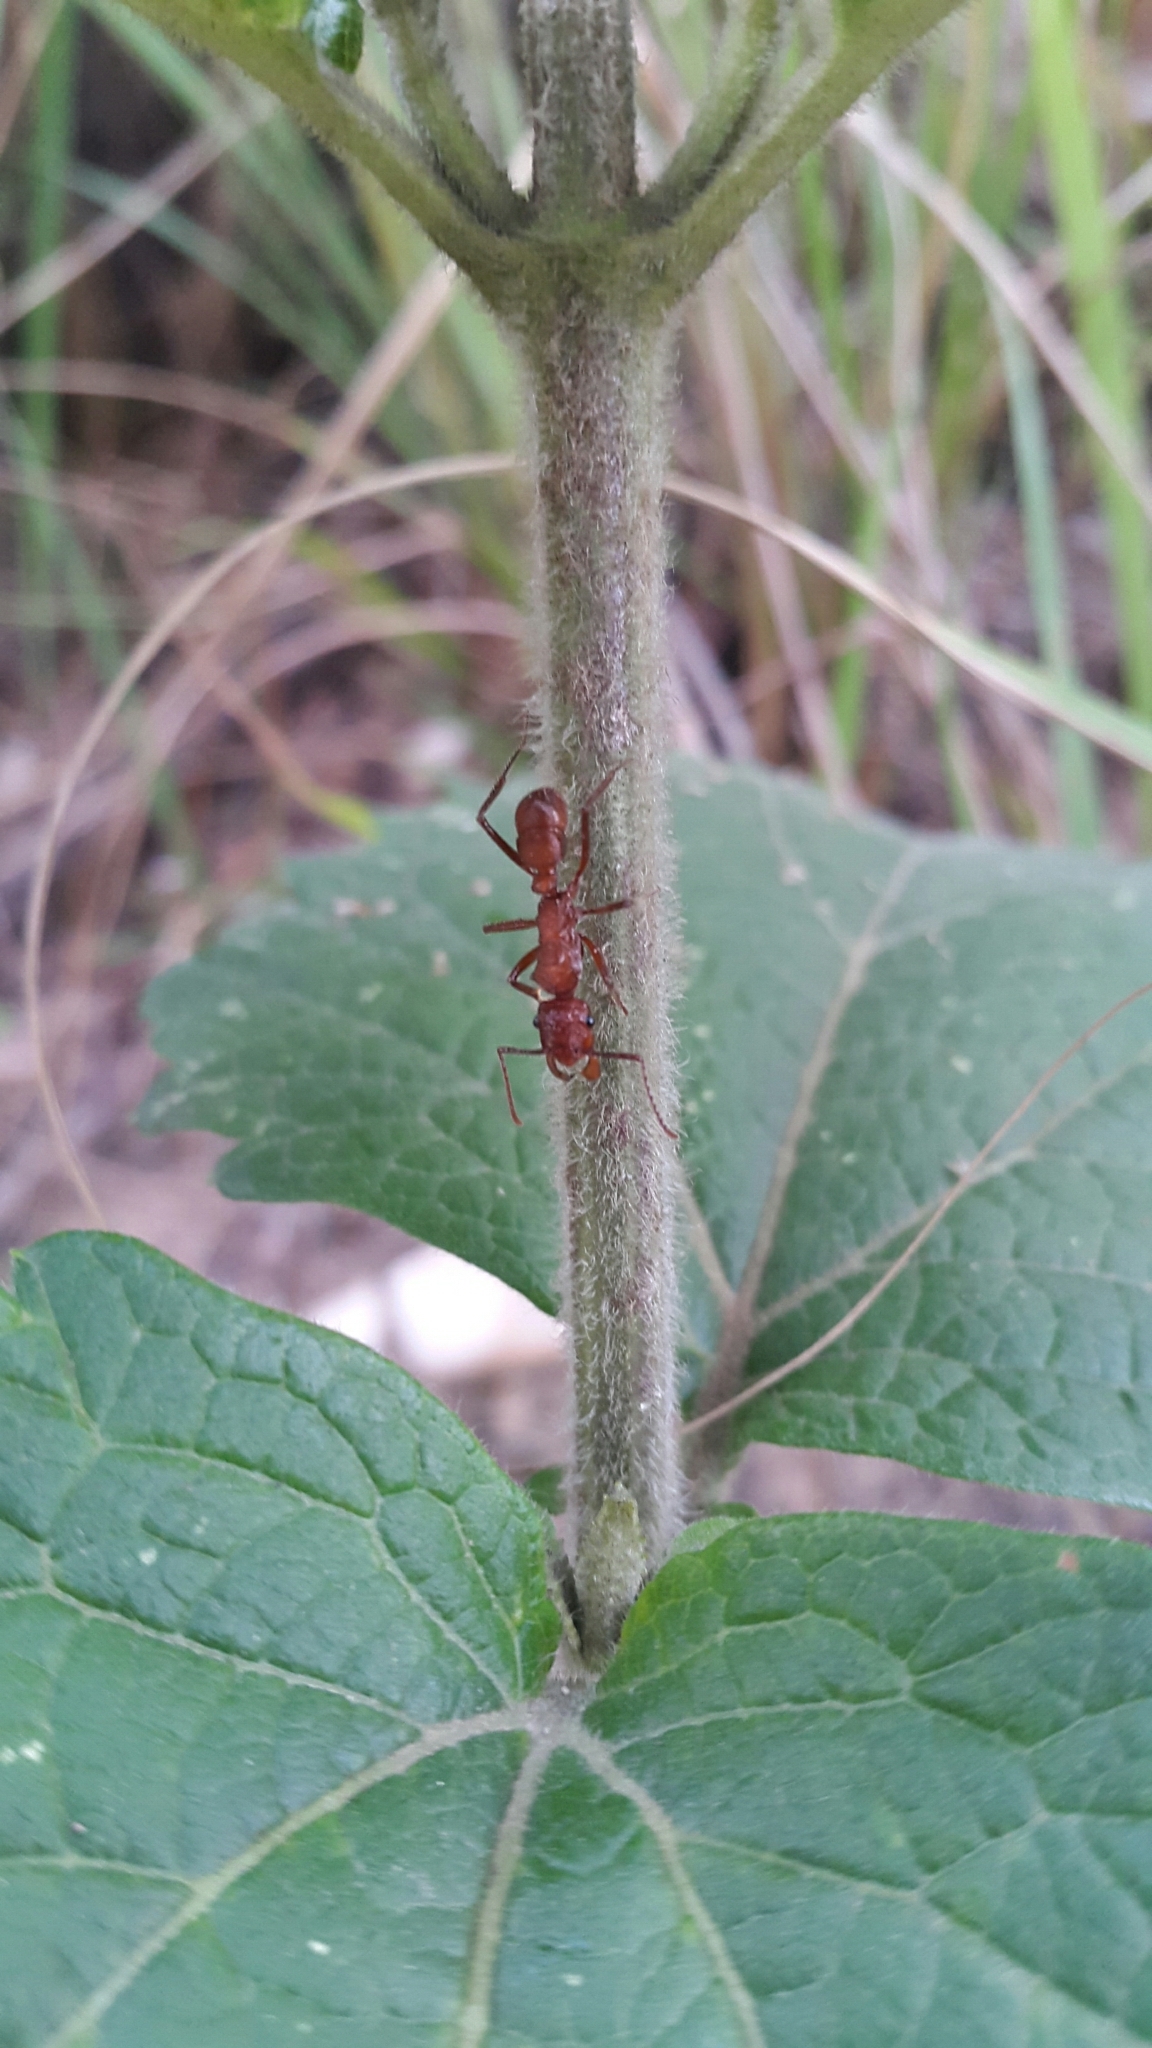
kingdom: Animalia
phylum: Arthropoda
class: Insecta
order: Hymenoptera
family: Formicidae
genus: Ectatomma
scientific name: Ectatomma tuberculatum
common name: Ant
